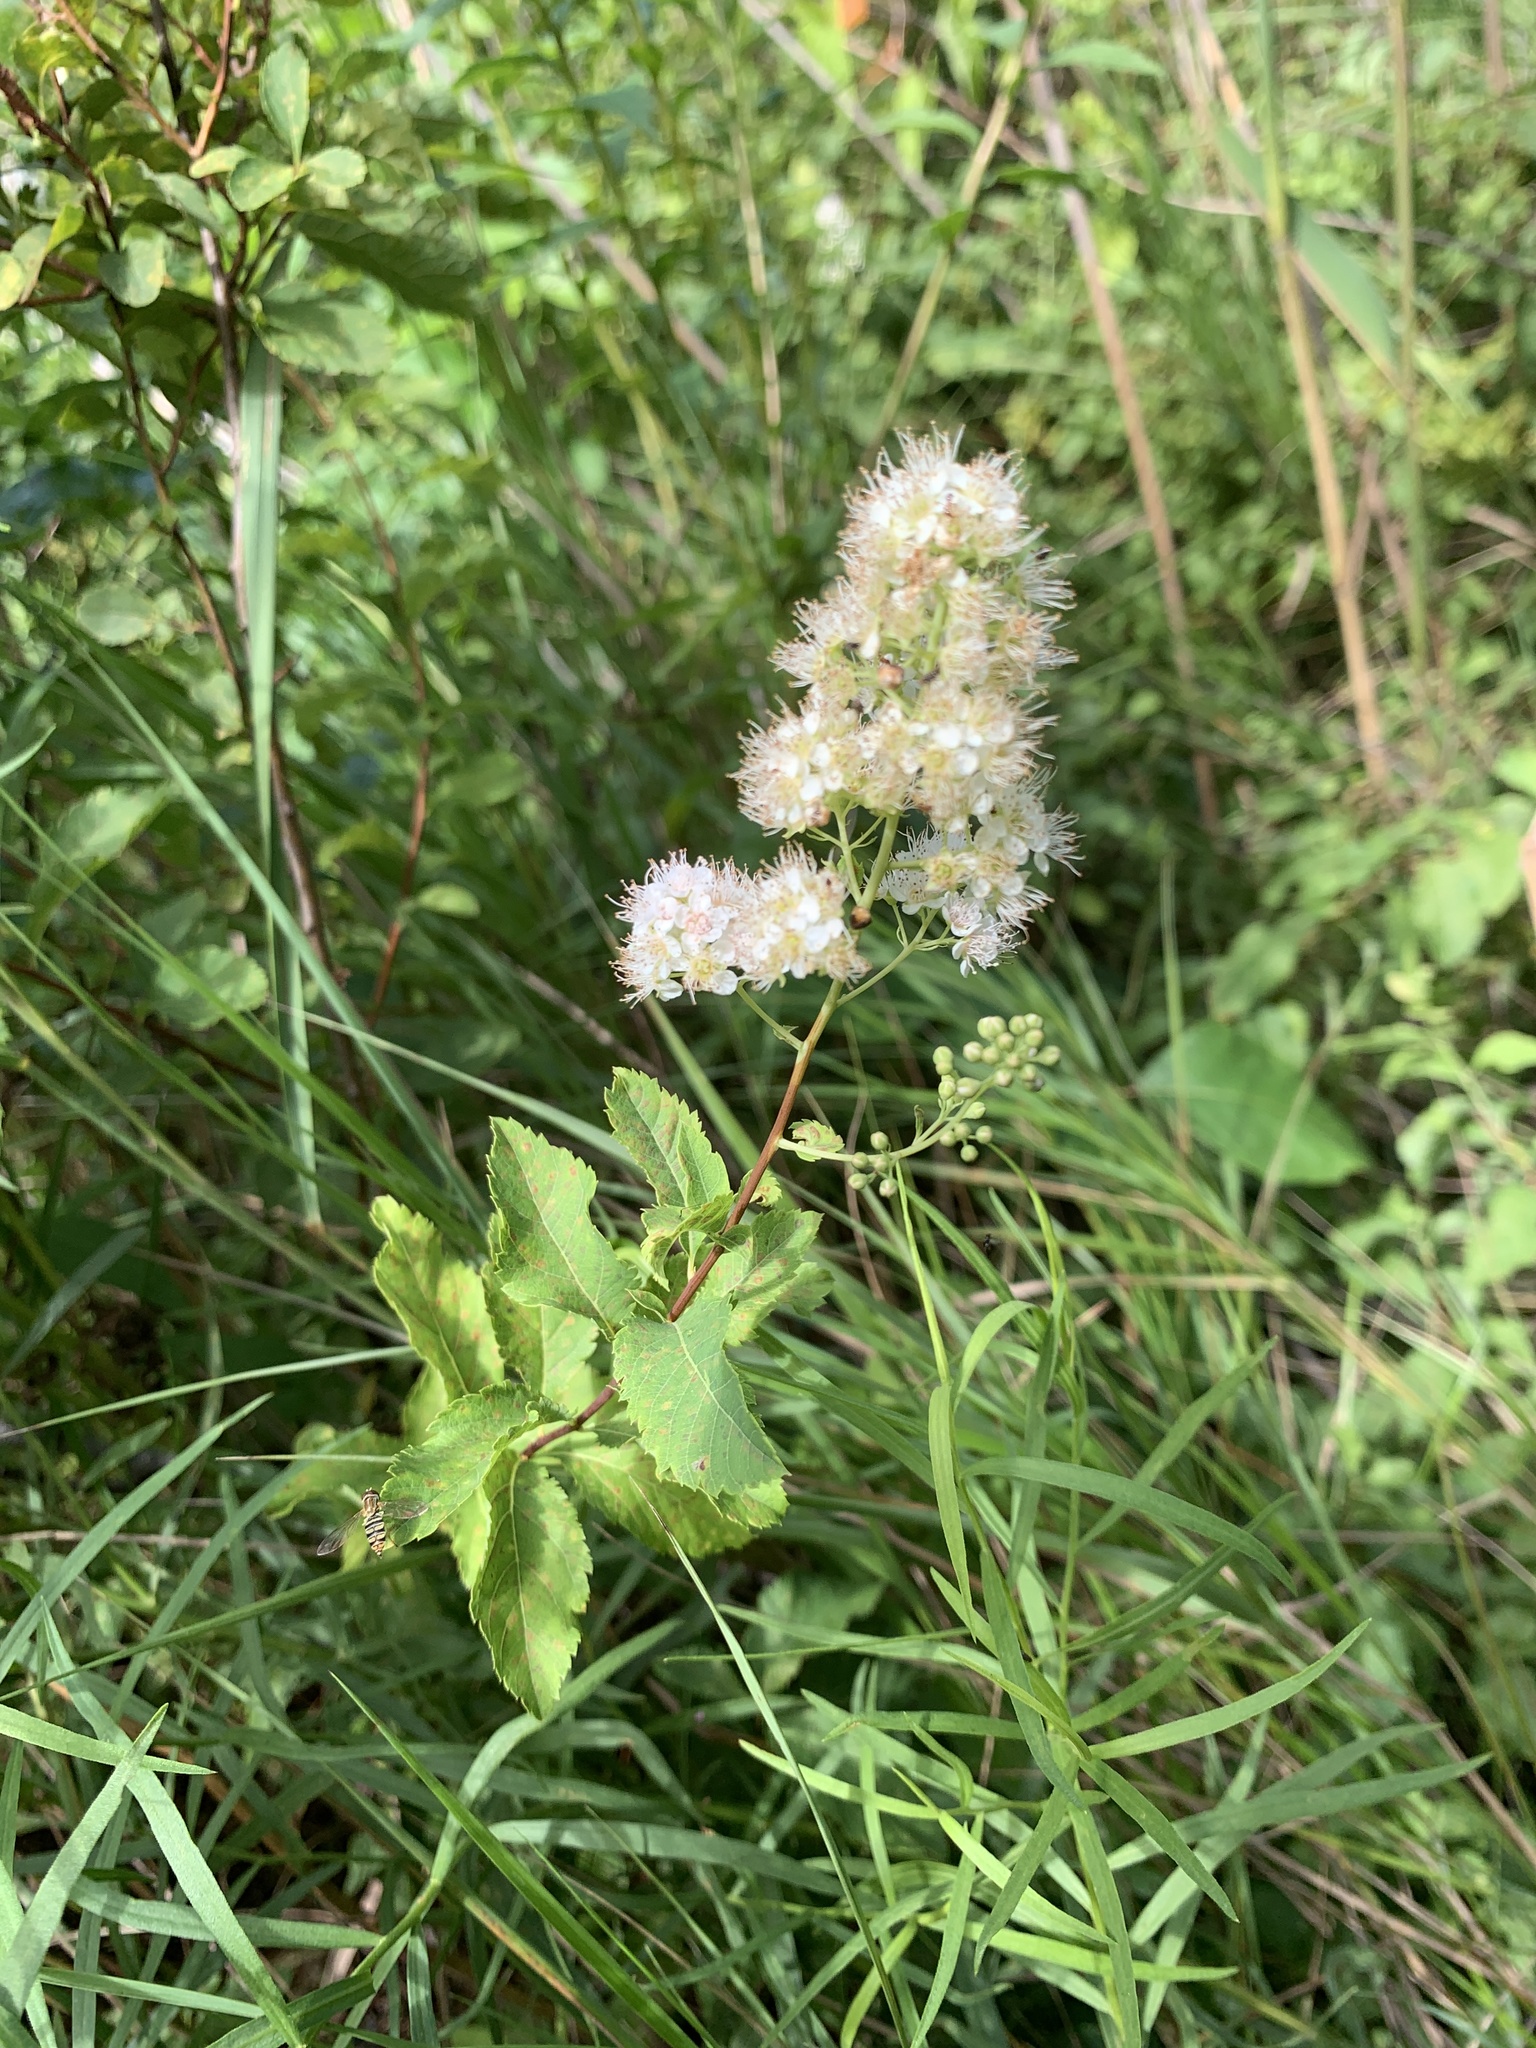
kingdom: Plantae
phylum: Tracheophyta
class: Magnoliopsida
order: Rosales
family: Rosaceae
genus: Spiraea
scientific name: Spiraea alba
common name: Pale bridewort
